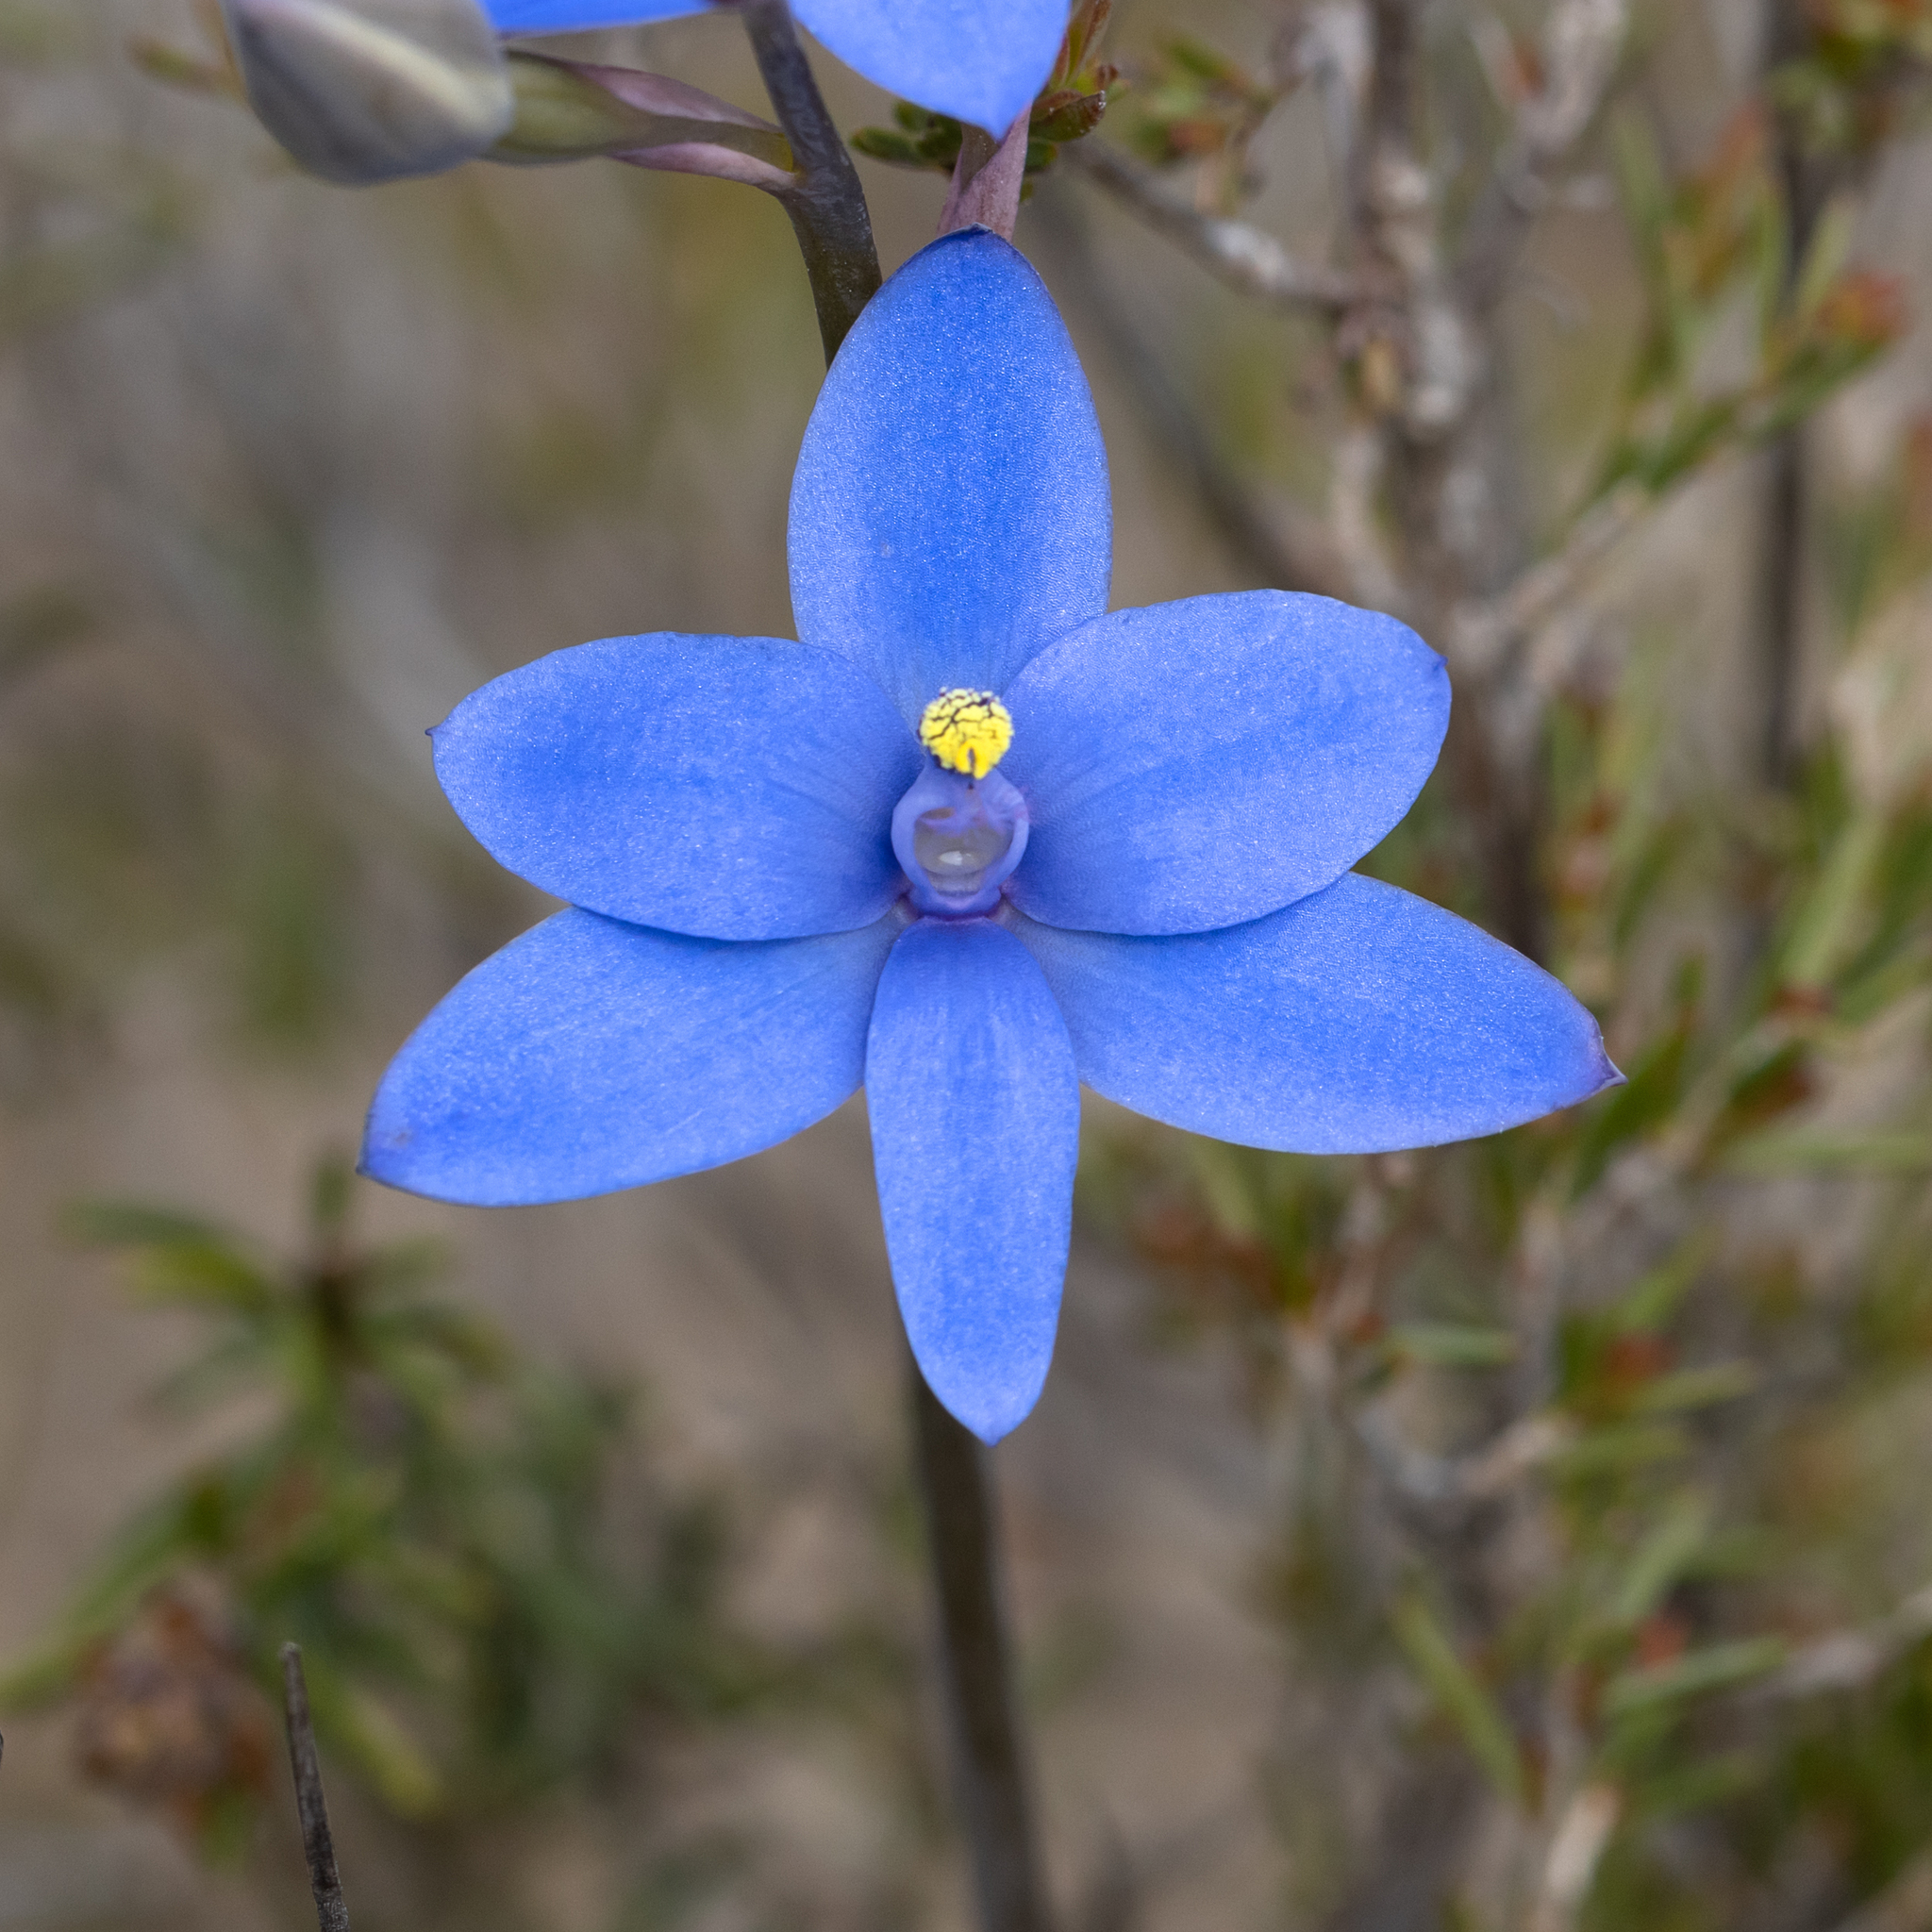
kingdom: Plantae
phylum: Tracheophyta
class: Liliopsida
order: Asparagales
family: Orchidaceae
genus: Thelymitra
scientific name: Thelymitra crinita
